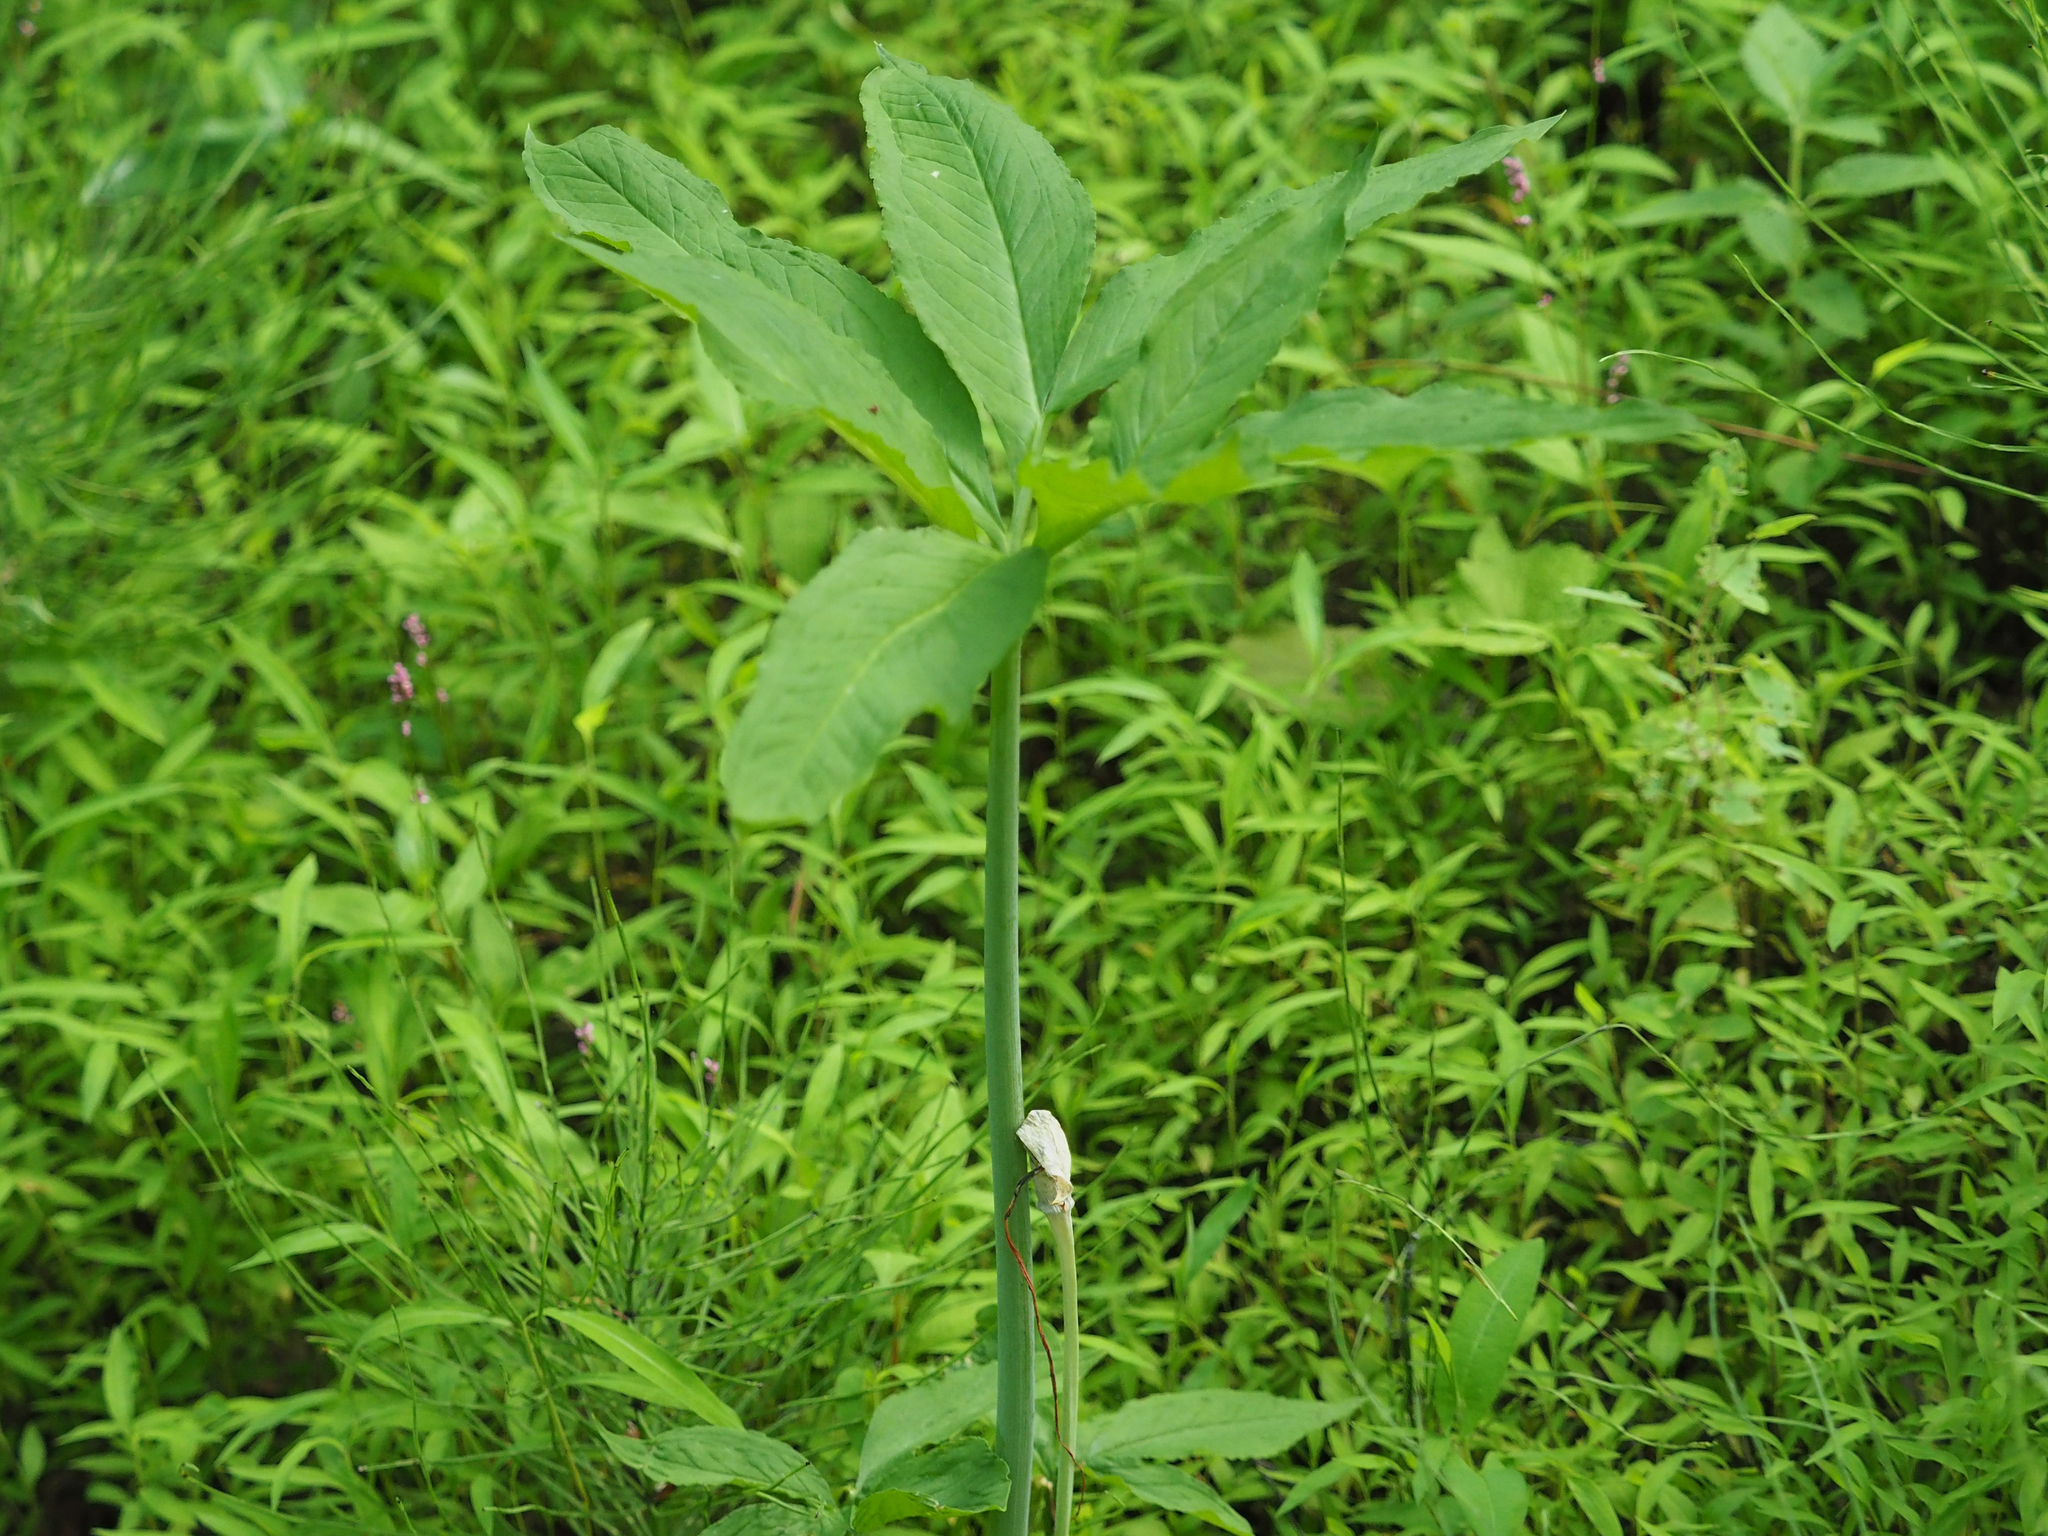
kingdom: Plantae
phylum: Tracheophyta
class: Liliopsida
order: Alismatales
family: Araceae
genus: Arisaema
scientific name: Arisaema dracontium
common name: Dragon-arum
